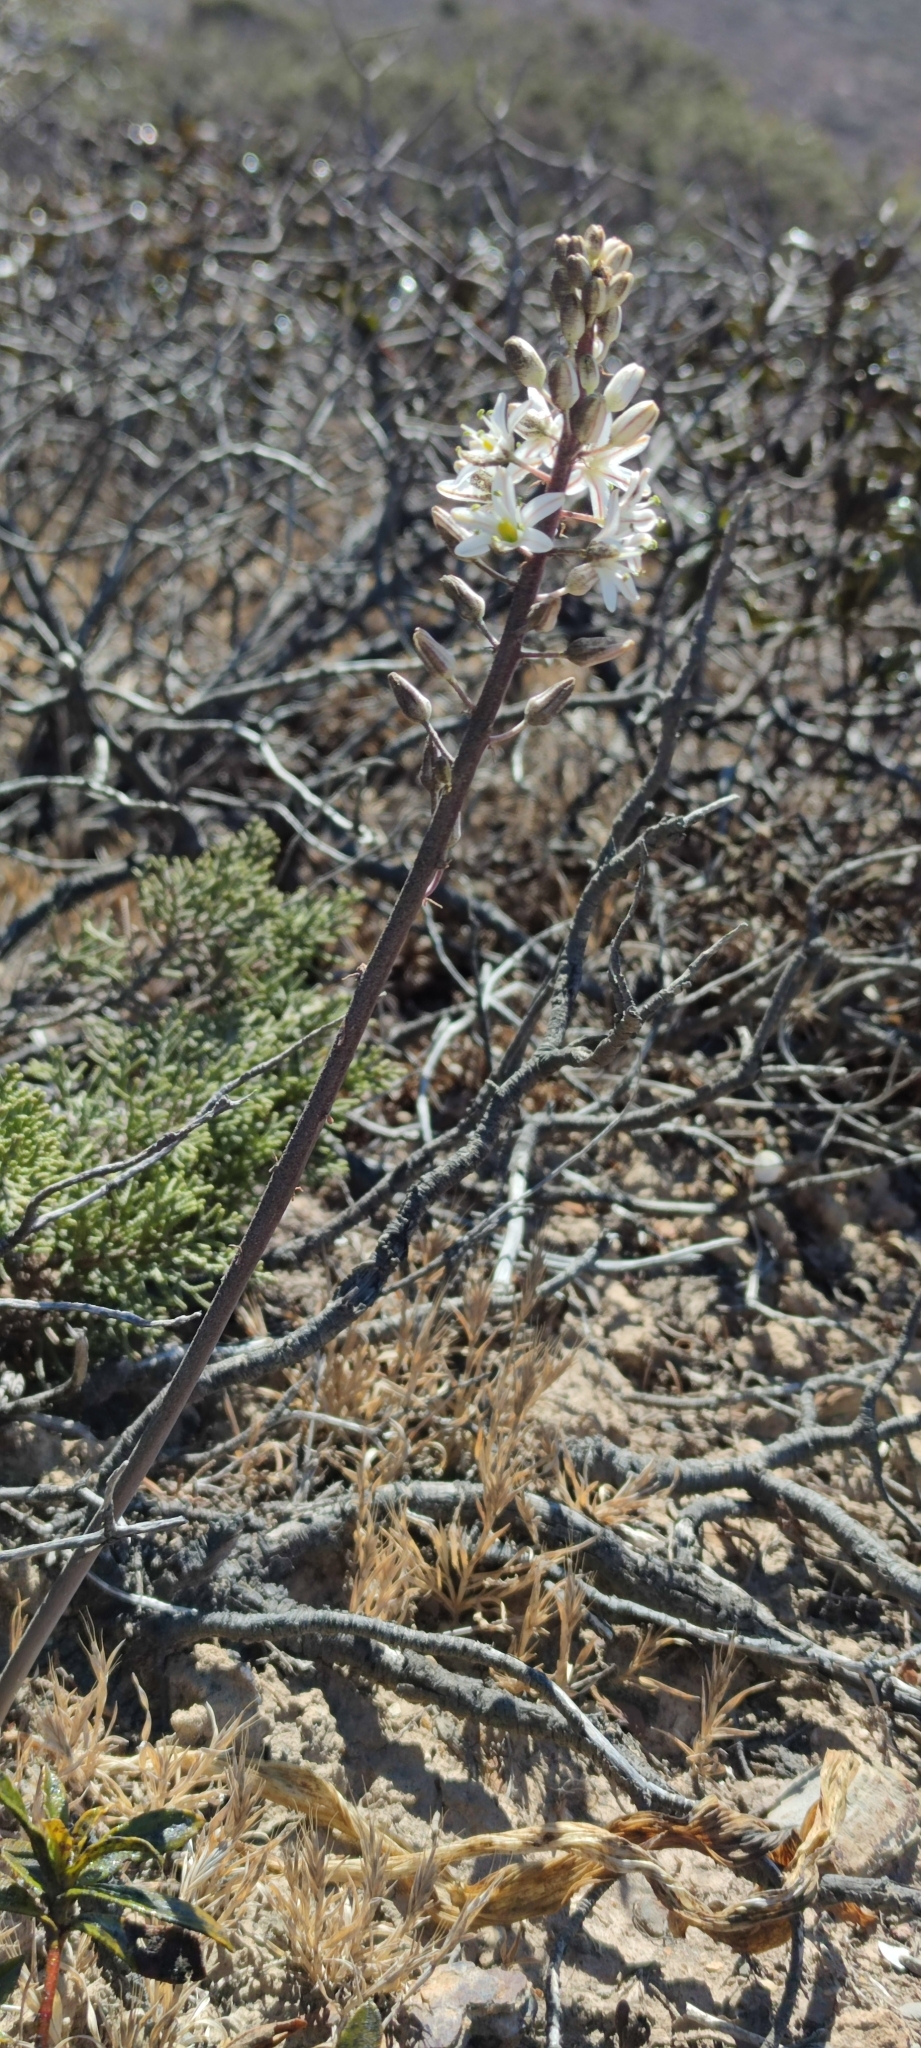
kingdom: Plantae
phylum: Tracheophyta
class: Liliopsida
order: Asparagales
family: Asparagaceae
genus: Drimia
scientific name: Drimia maritima
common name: Maritime squill
